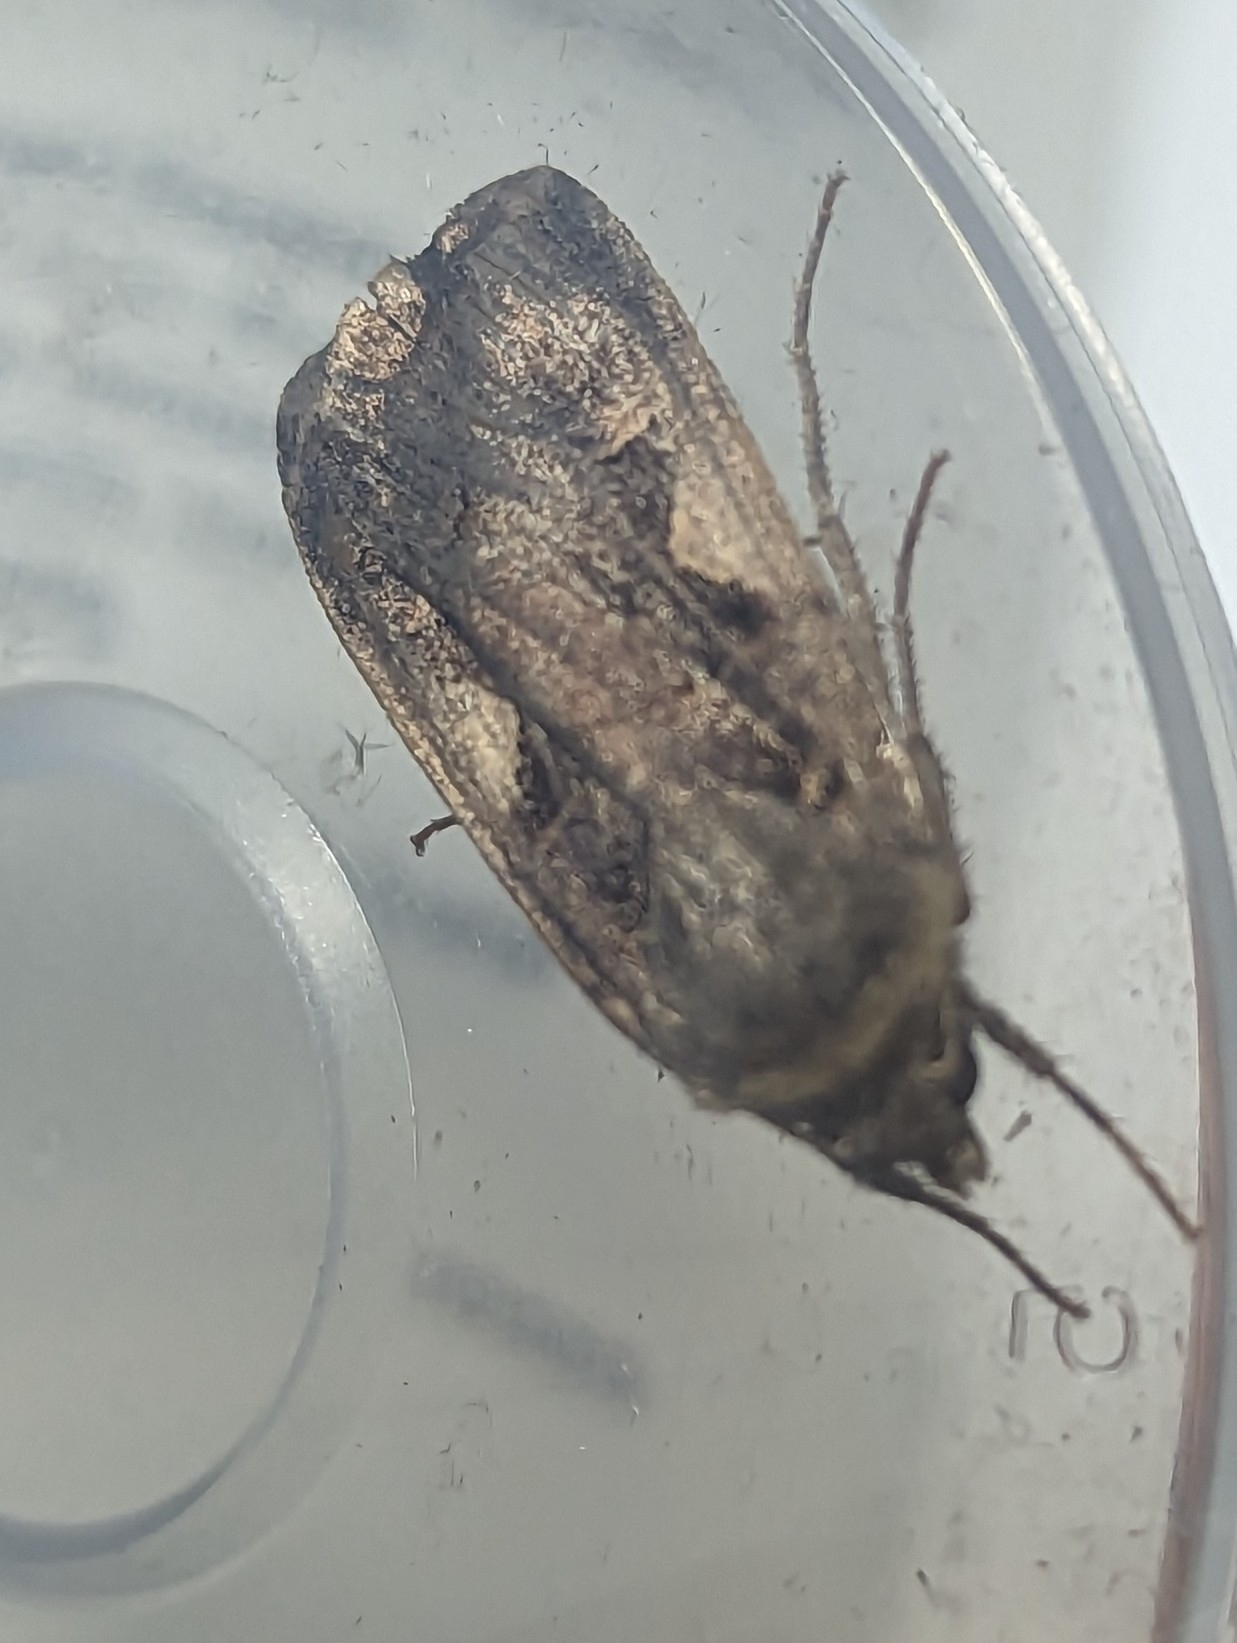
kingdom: Animalia
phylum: Arthropoda
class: Insecta
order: Lepidoptera
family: Noctuidae
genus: Xestia
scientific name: Xestia c-nigrum
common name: Setaceous hebrew character
